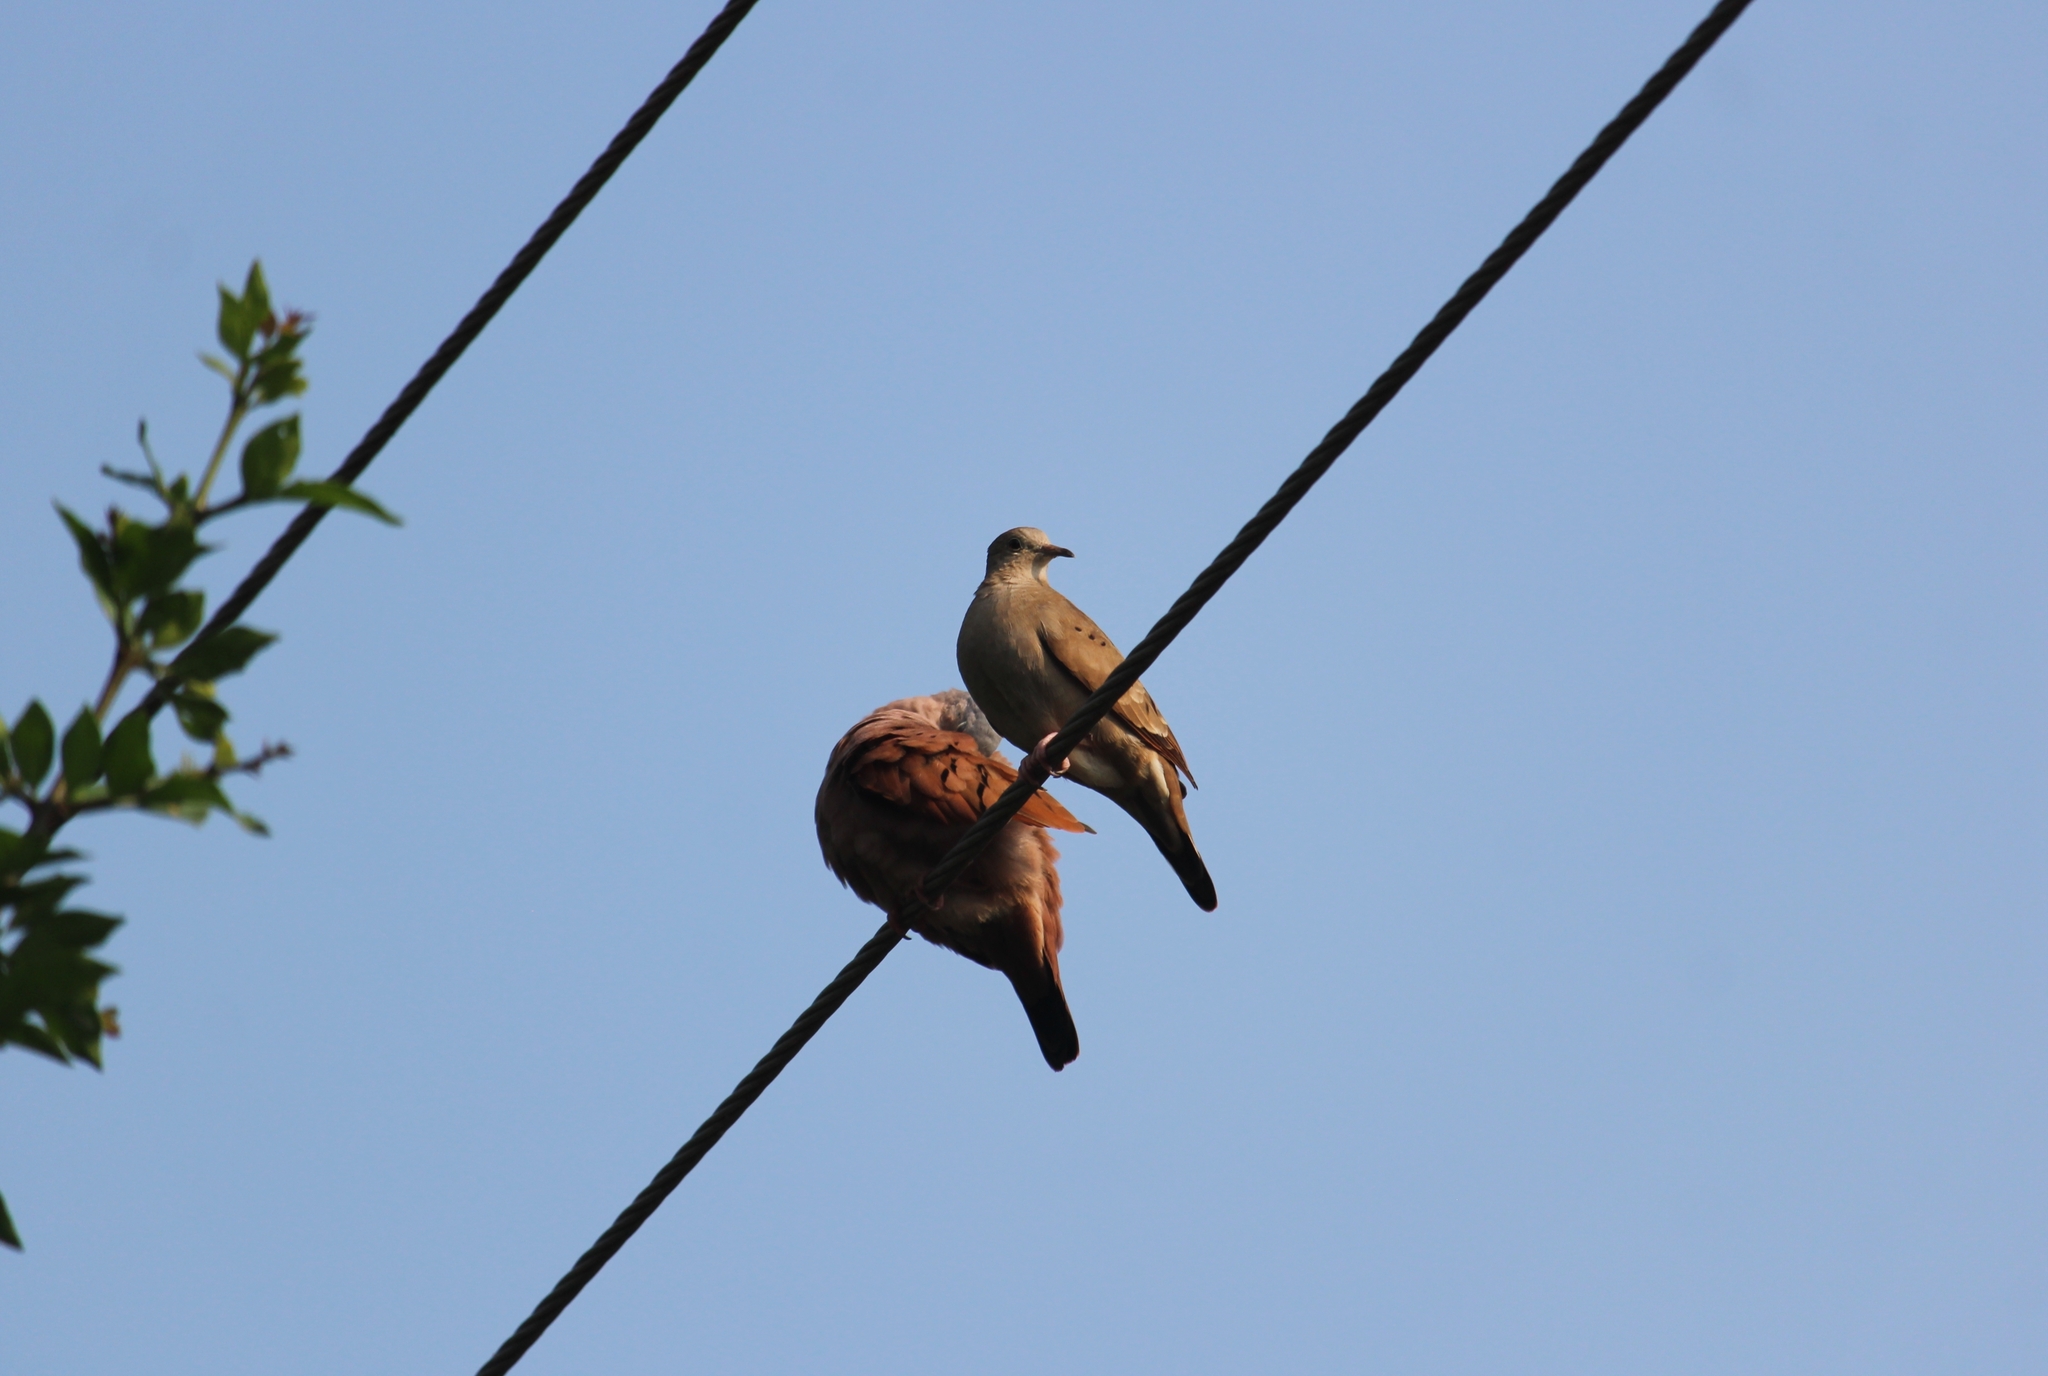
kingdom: Animalia
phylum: Chordata
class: Aves
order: Columbiformes
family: Columbidae
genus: Columbina
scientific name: Columbina talpacoti
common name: Ruddy ground dove
